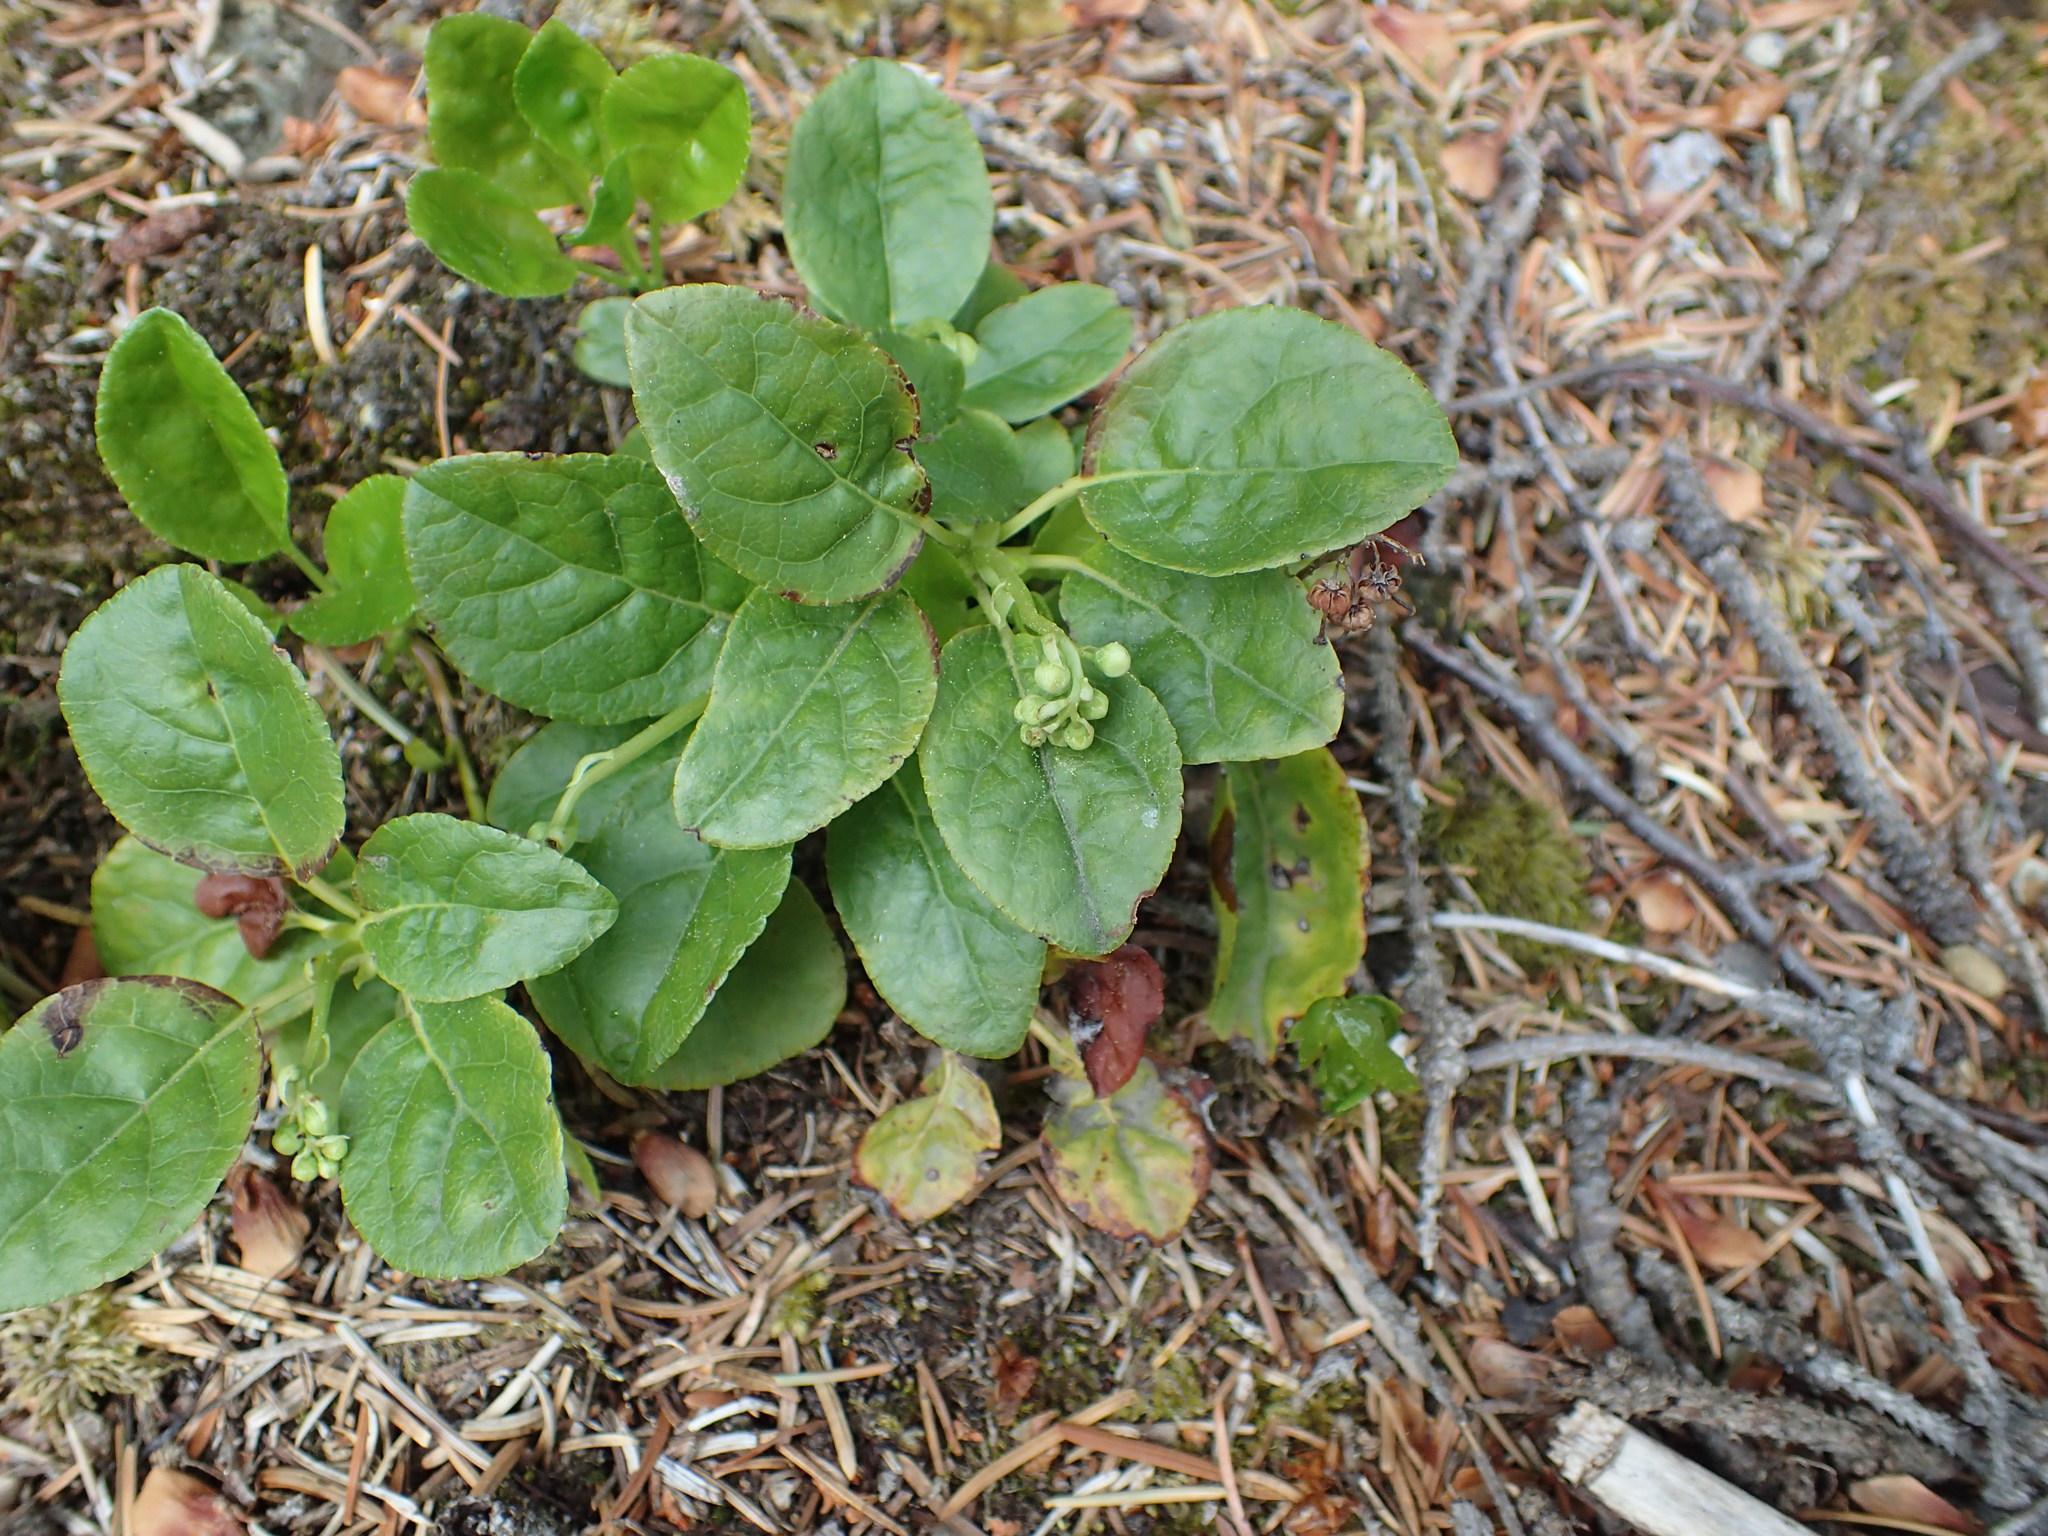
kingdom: Plantae
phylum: Tracheophyta
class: Magnoliopsida
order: Ericales
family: Ericaceae
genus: Orthilia
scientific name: Orthilia secunda
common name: One-sided orthilia
